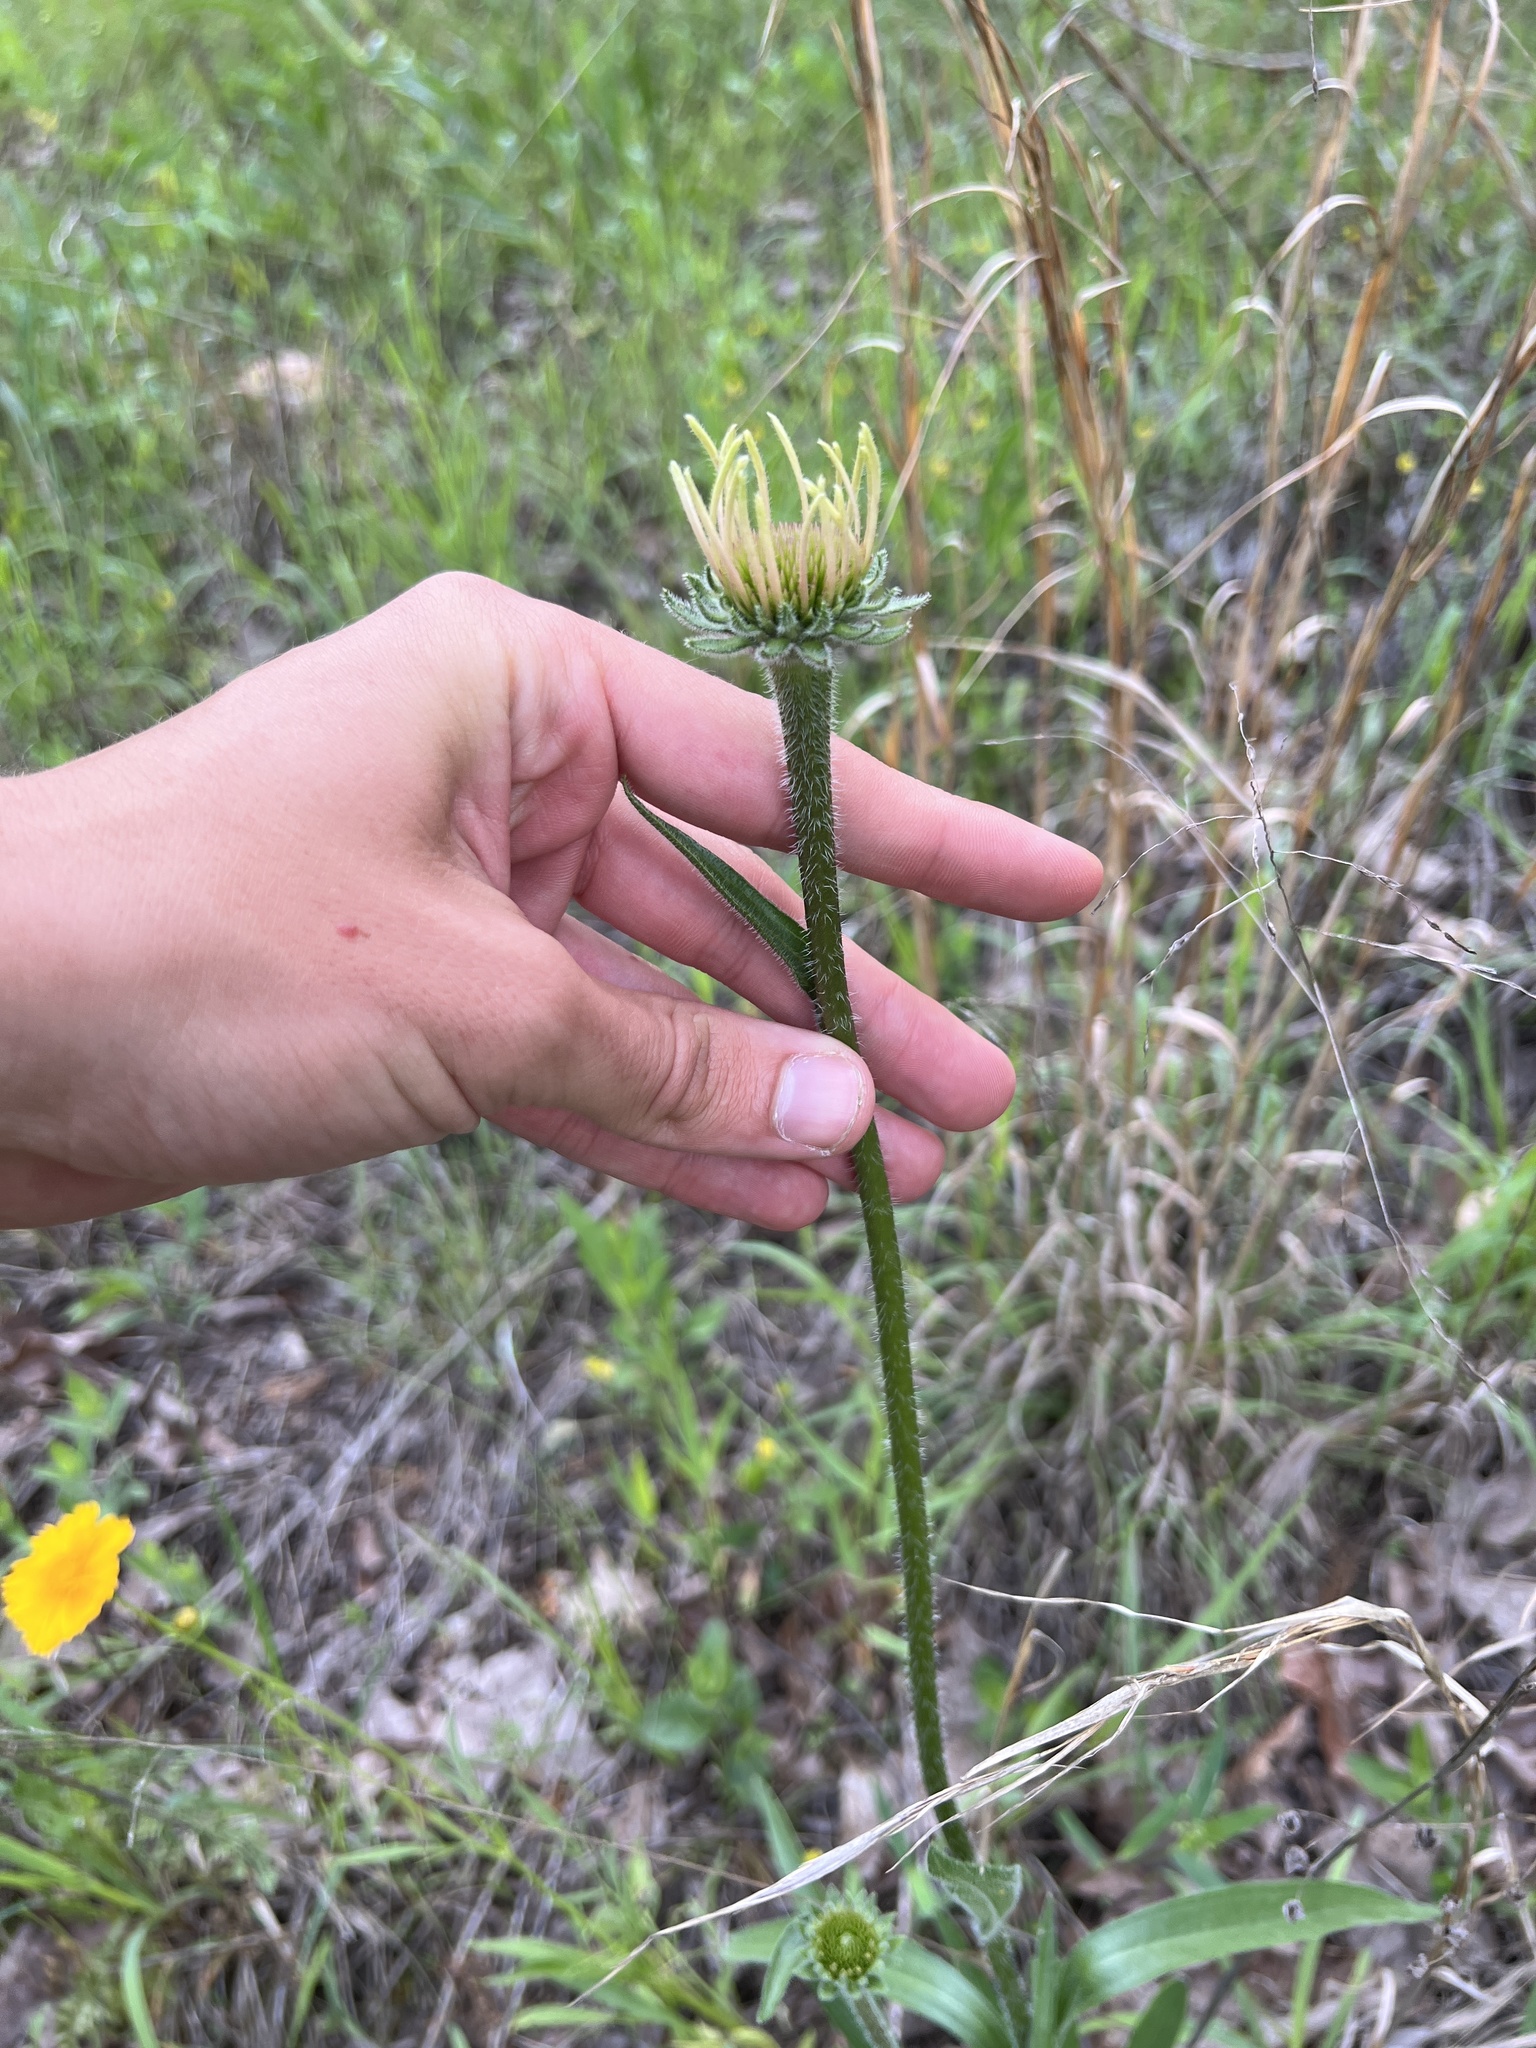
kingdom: Plantae
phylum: Tracheophyta
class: Magnoliopsida
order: Asterales
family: Asteraceae
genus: Echinacea
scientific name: Echinacea paradoxa
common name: Bush's purple-coneflower
